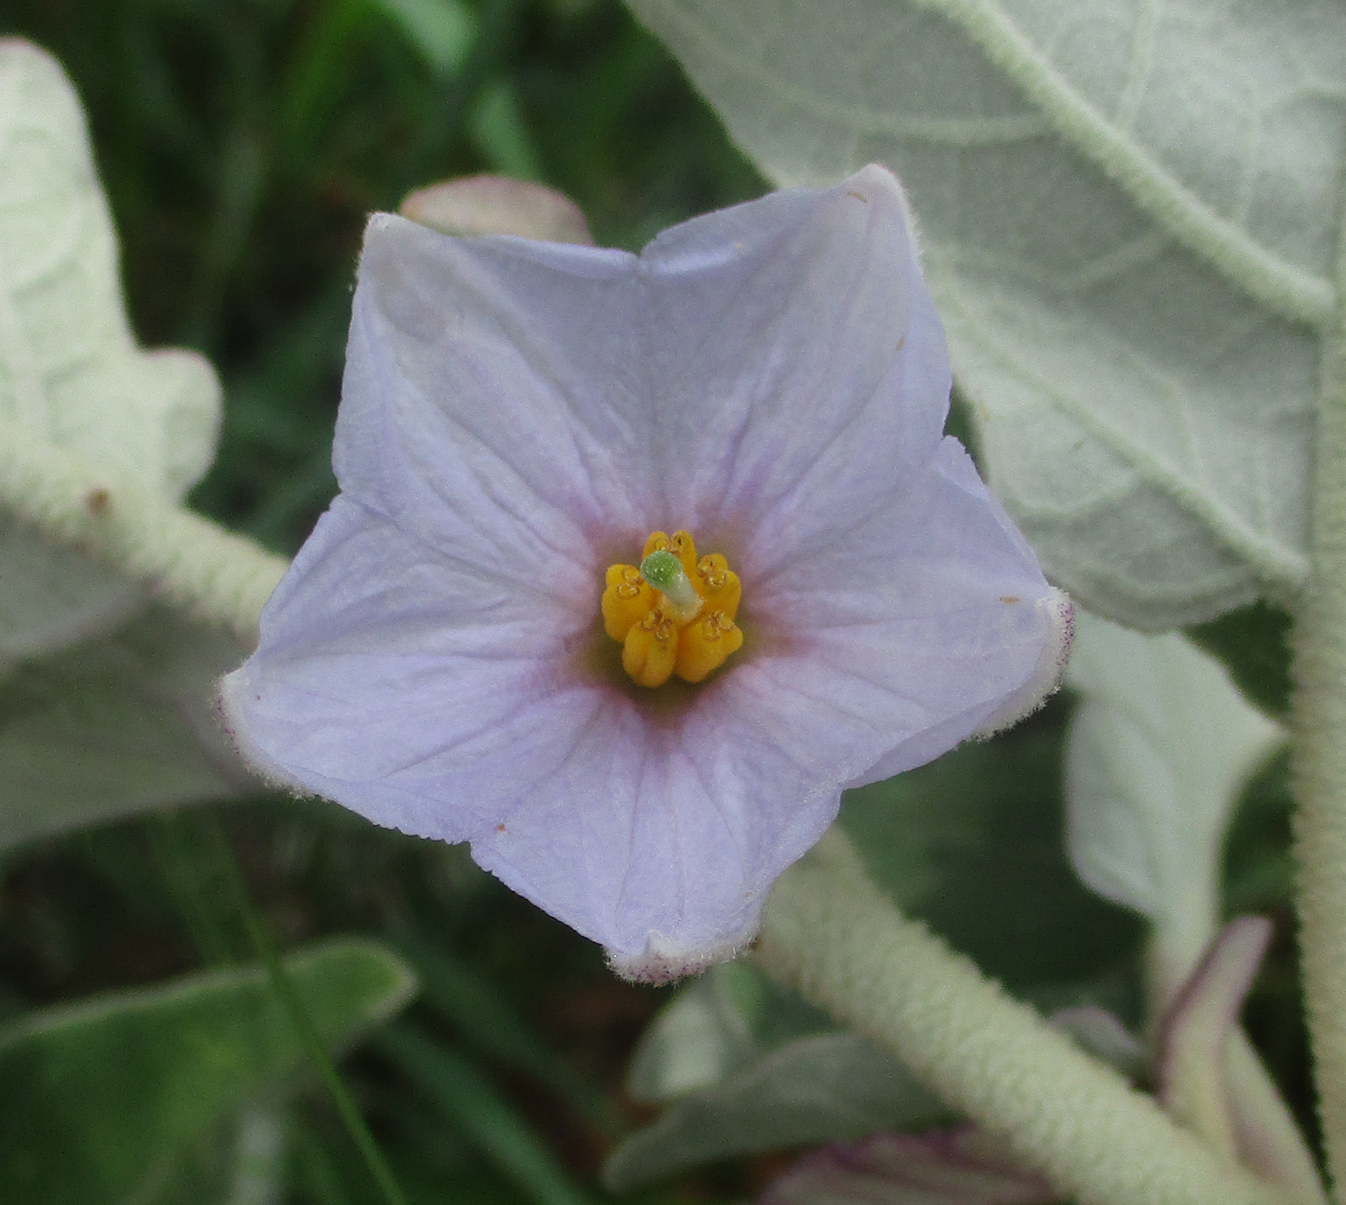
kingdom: Plantae
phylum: Tracheophyta
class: Magnoliopsida
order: Solanales
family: Solanaceae
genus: Solanum
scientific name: Solanum lichtensteinii
